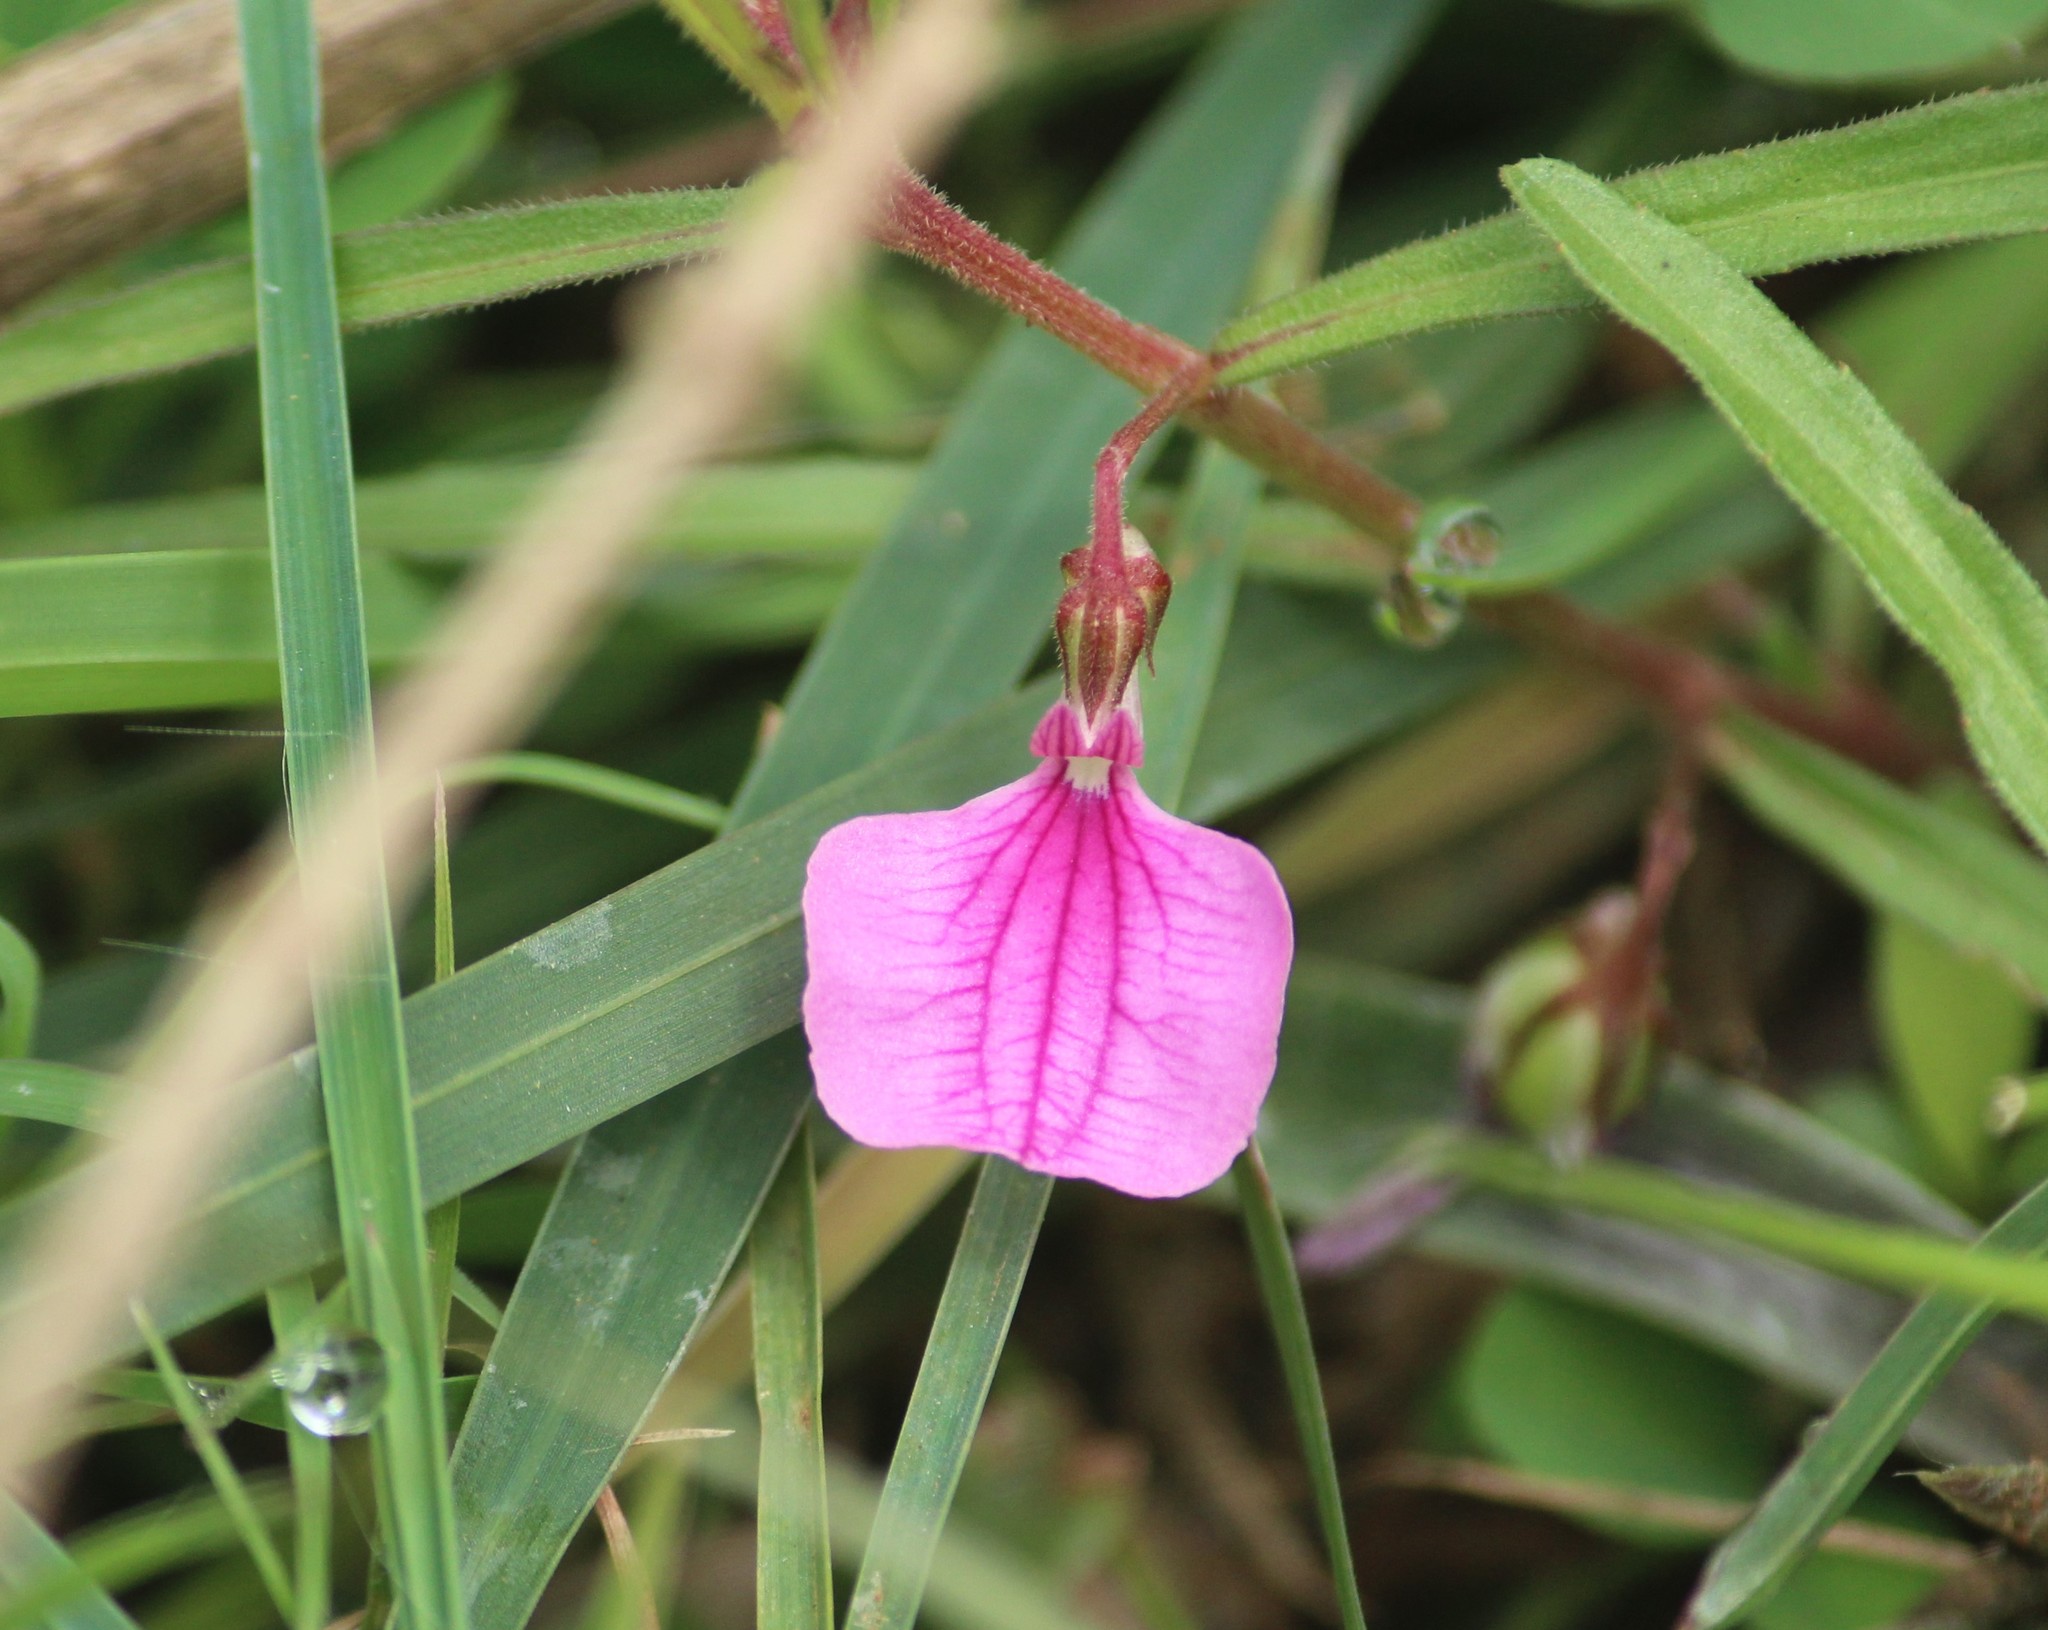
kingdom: Plantae
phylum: Tracheophyta
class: Magnoliopsida
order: Malpighiales
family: Violaceae
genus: Pigea
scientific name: Pigea enneasperma
